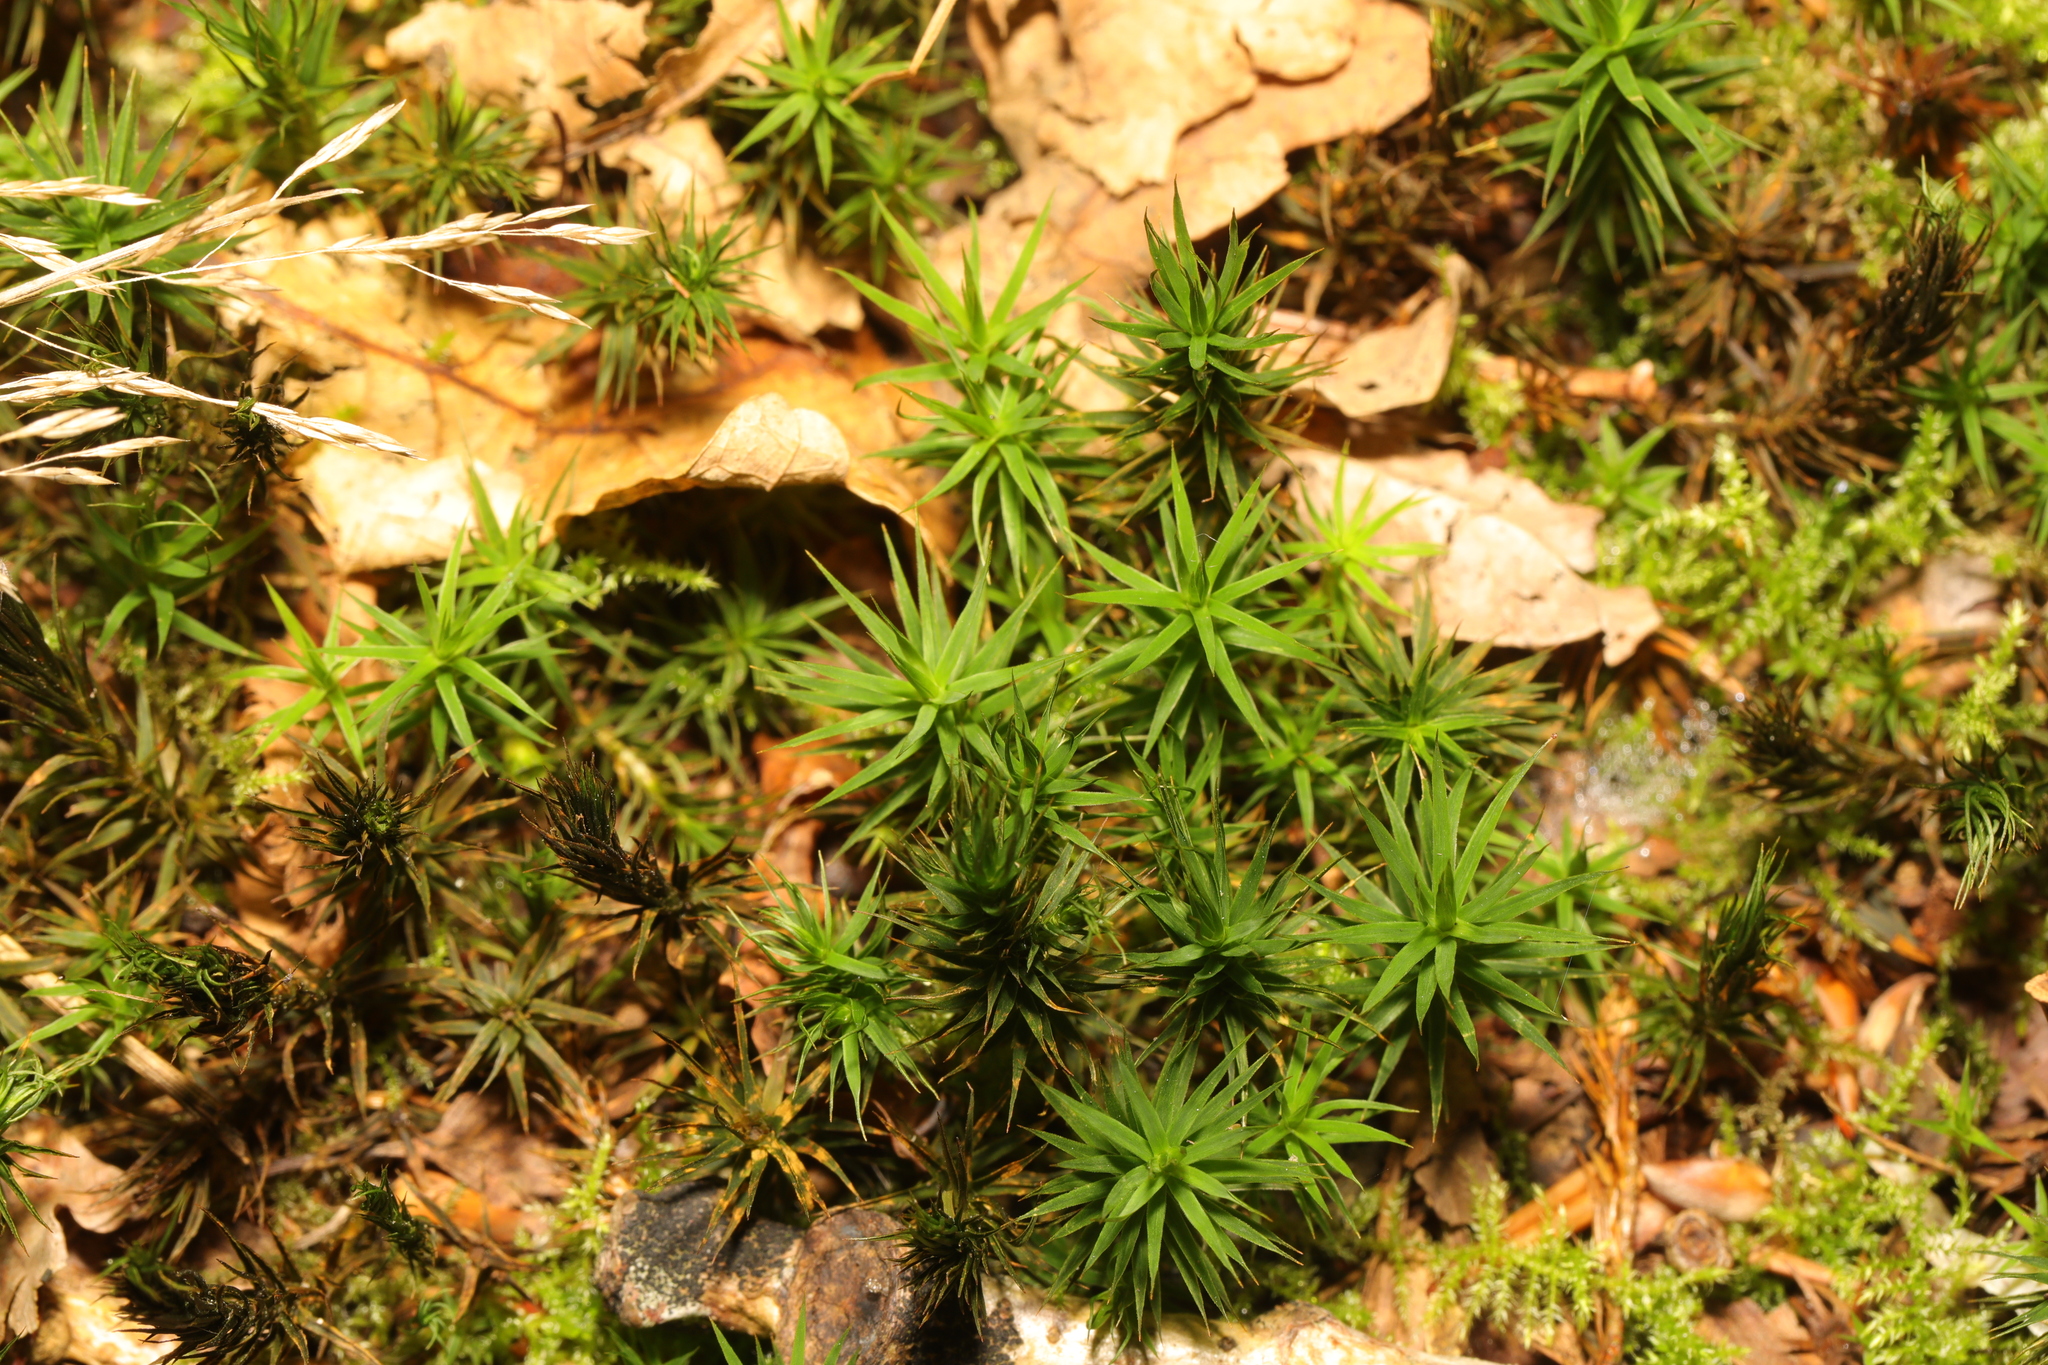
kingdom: Plantae
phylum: Bryophyta
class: Polytrichopsida
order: Polytrichales
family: Polytrichaceae
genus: Polytrichum
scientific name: Polytrichum formosum
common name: Bank haircap moss
